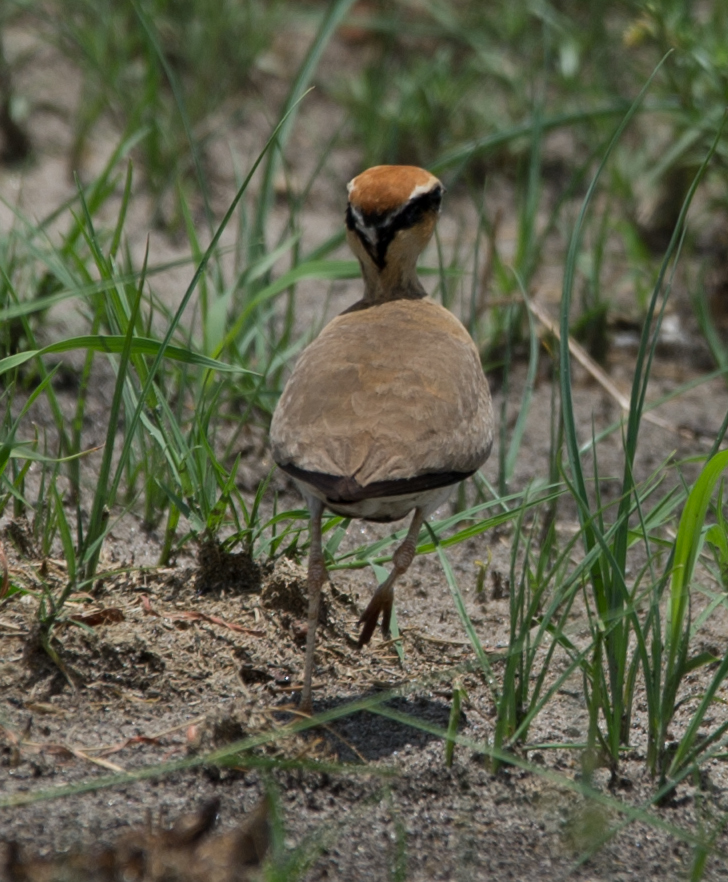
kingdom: Animalia
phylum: Chordata
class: Aves
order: Charadriiformes
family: Glareolidae
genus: Cursorius
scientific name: Cursorius temminckii
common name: Temminck's courser
